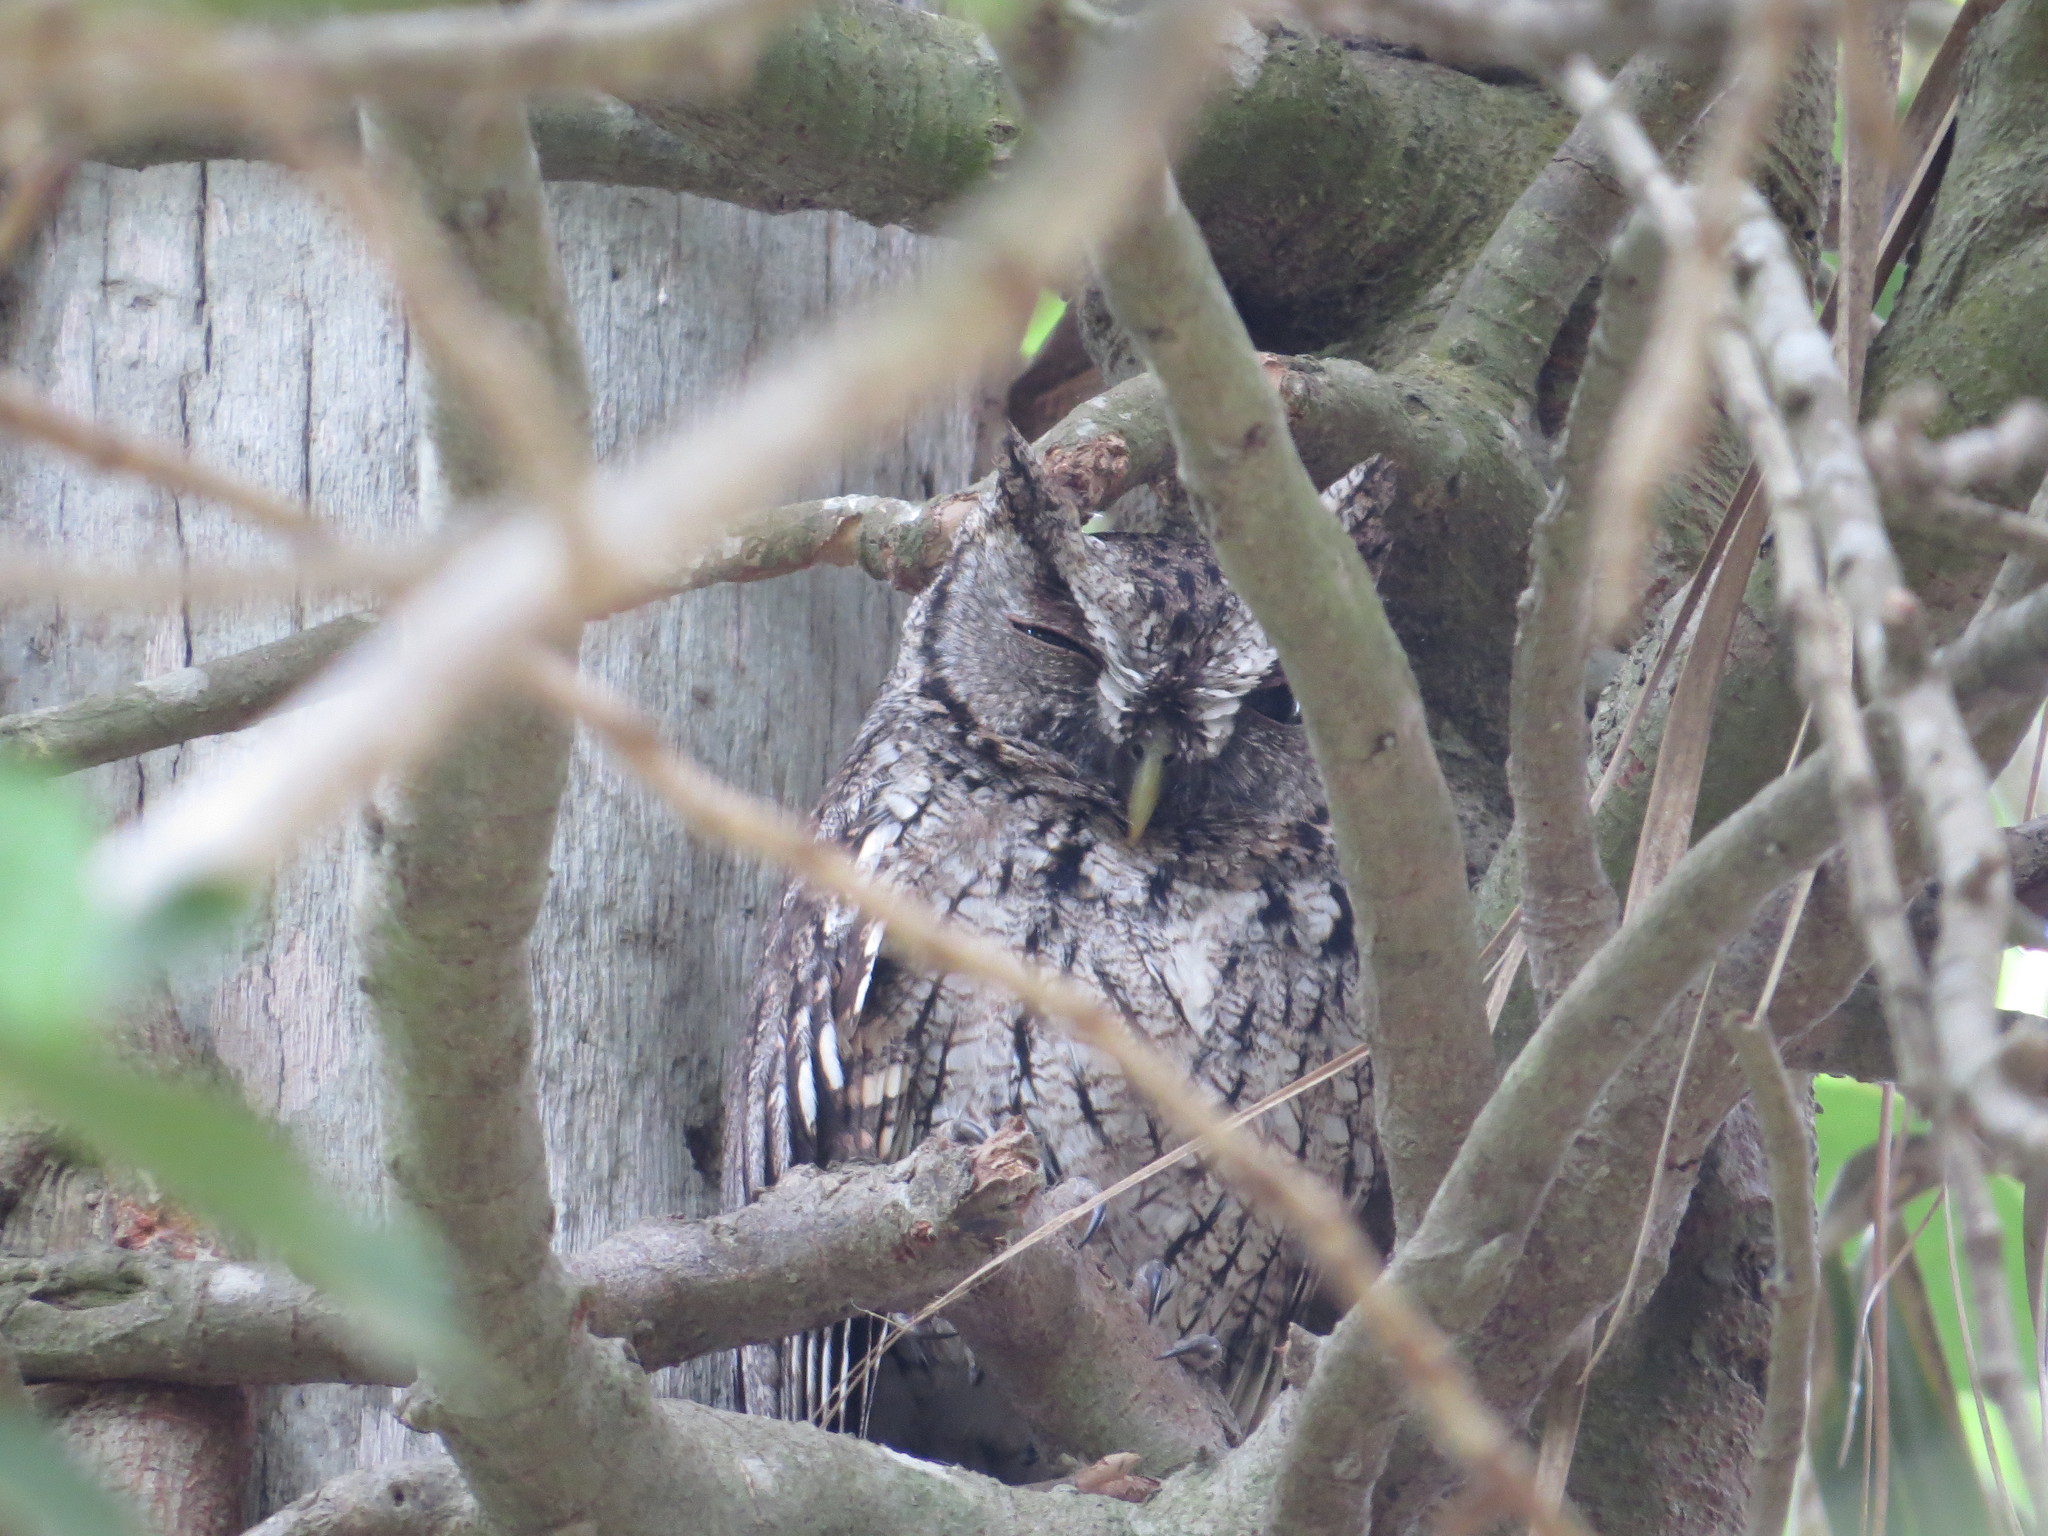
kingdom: Animalia
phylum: Chordata
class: Aves
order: Strigiformes
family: Strigidae
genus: Megascops
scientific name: Megascops asio
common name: Eastern screech-owl
